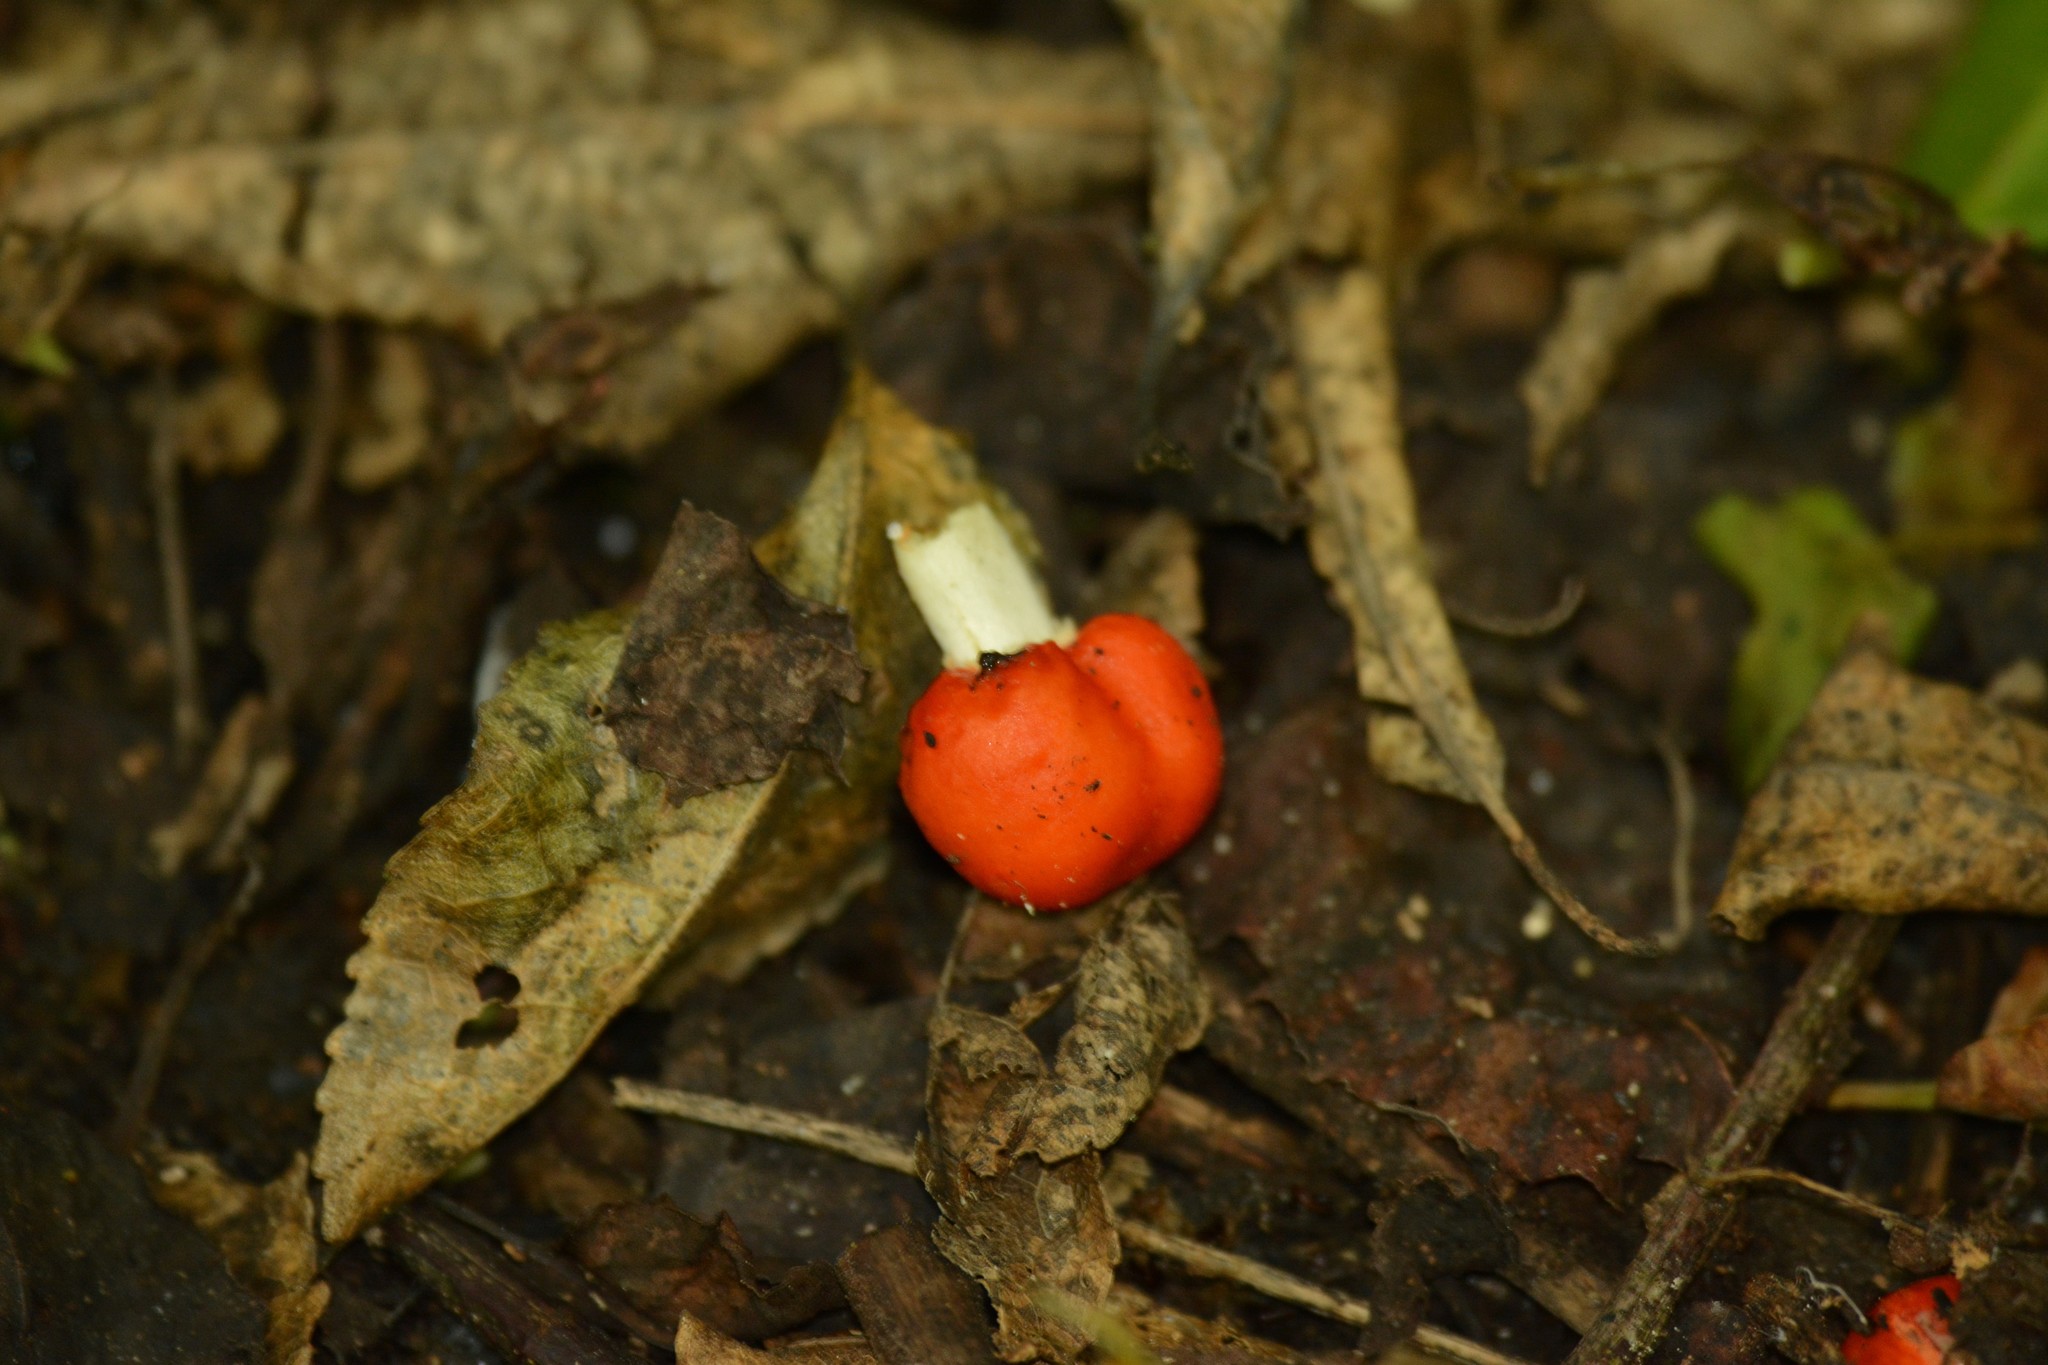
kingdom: Fungi
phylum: Basidiomycota
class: Agaricomycetes
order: Agaricales
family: Strophariaceae
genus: Leratiomyces
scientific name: Leratiomyces erythrocephalus
